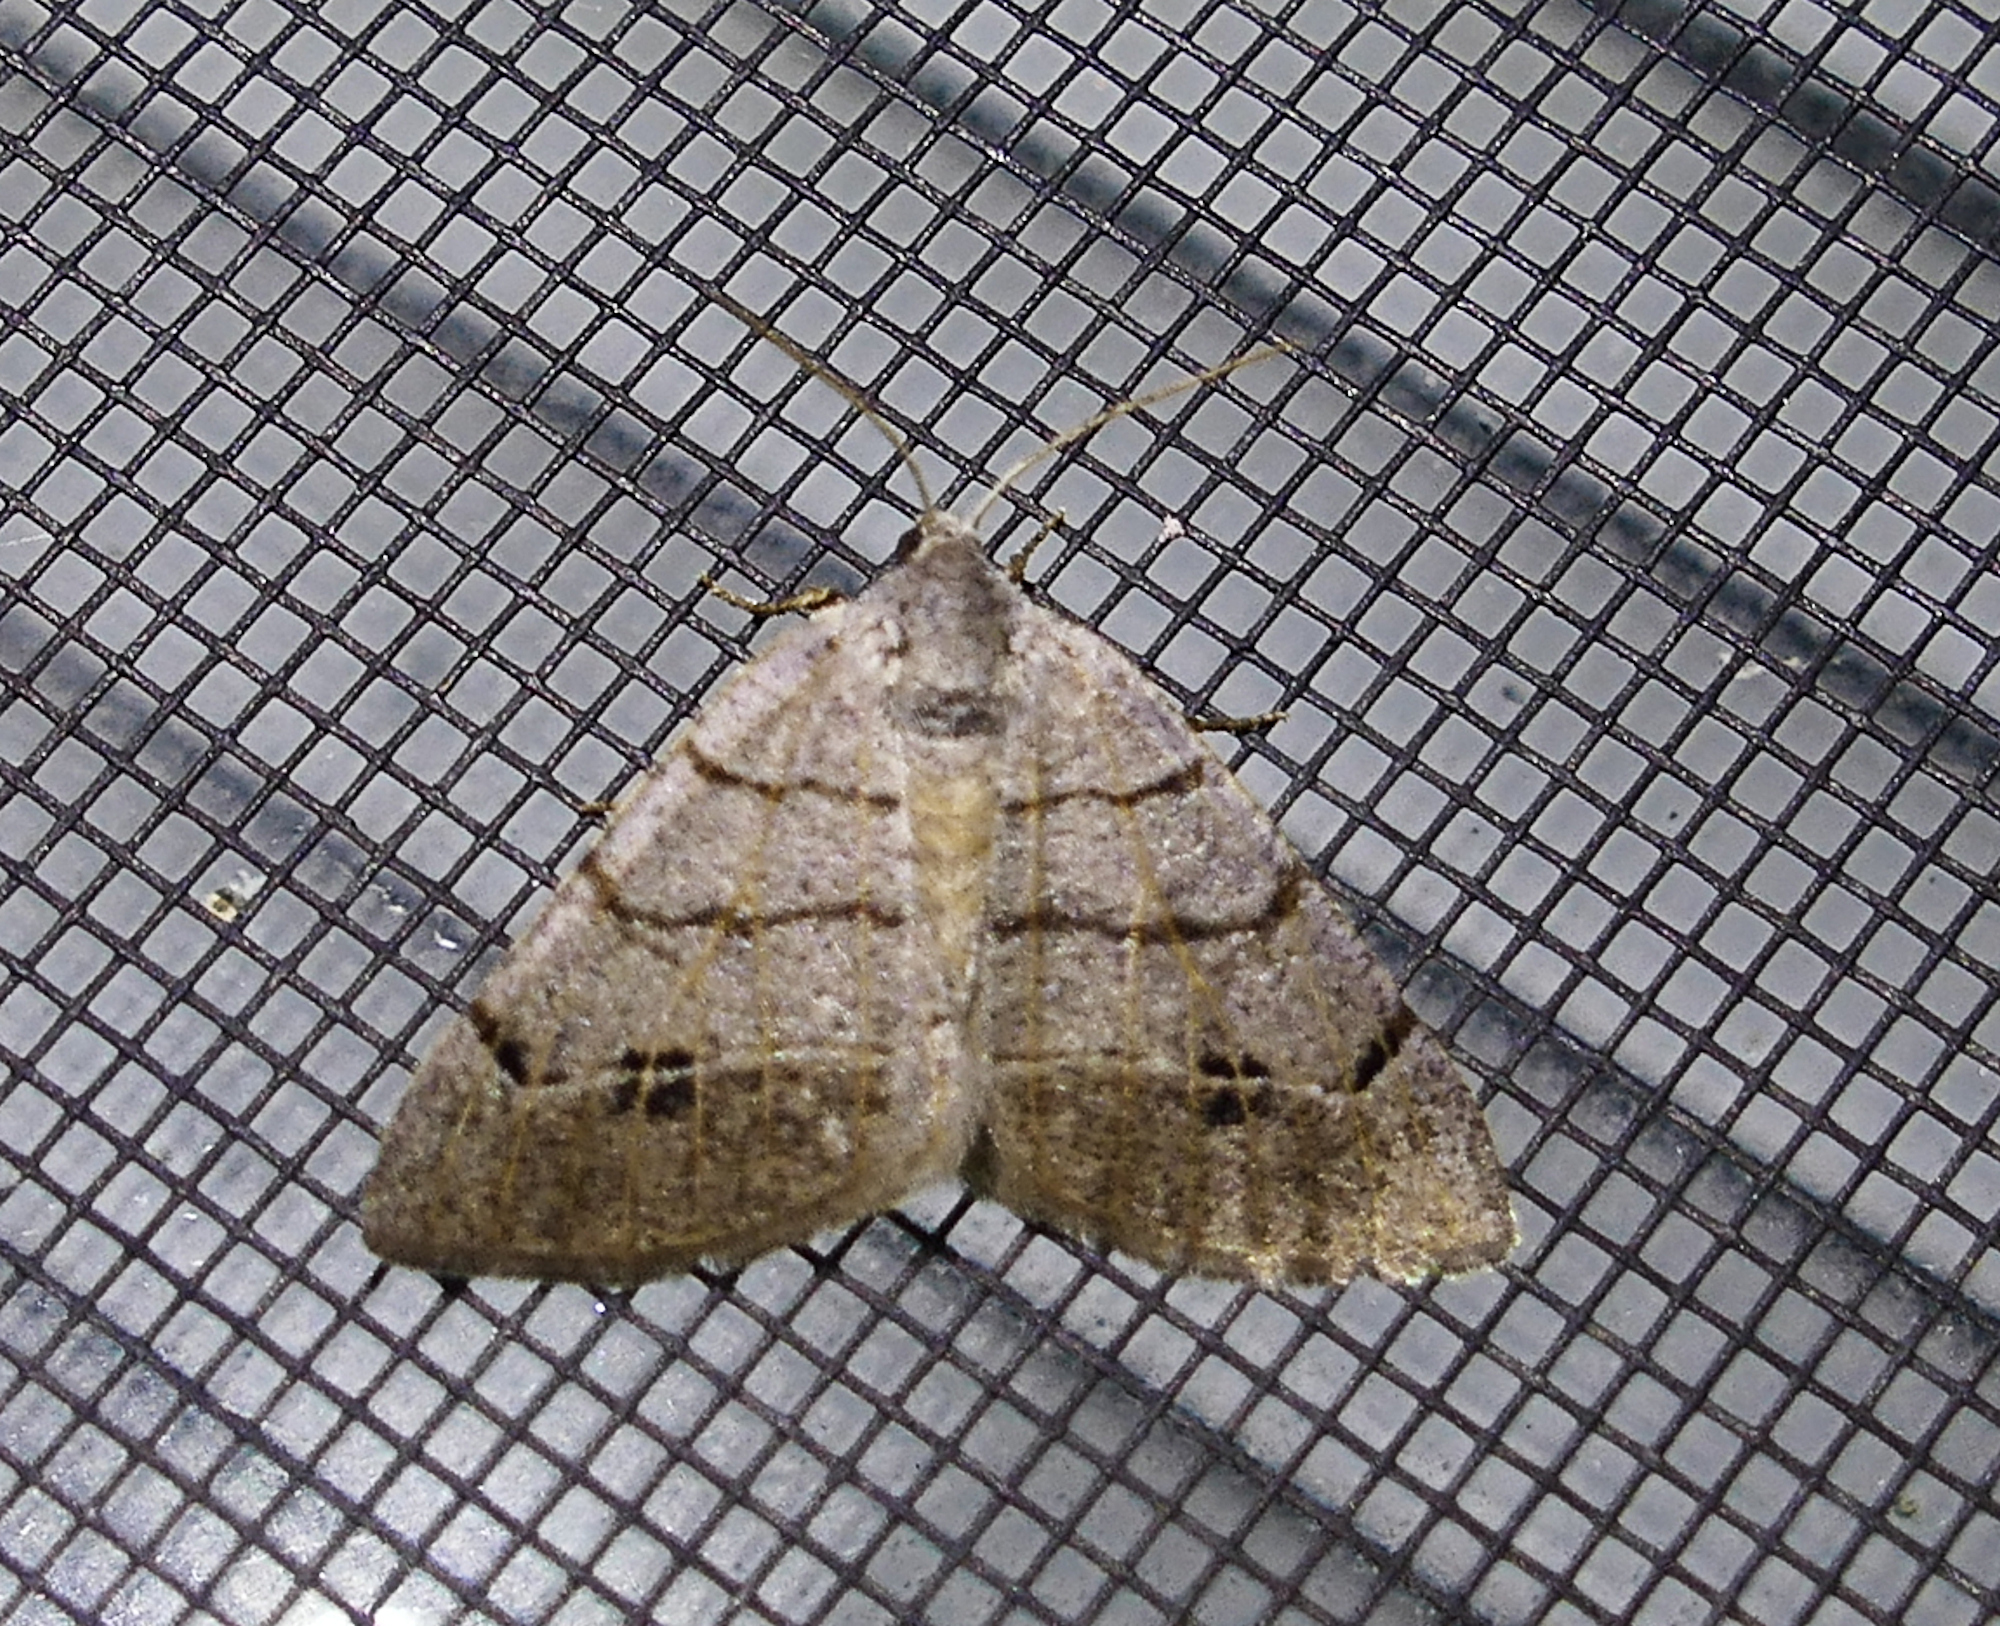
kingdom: Animalia
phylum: Arthropoda
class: Insecta
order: Lepidoptera
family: Geometridae
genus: Isturgia
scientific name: Isturgia dislocaria
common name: Pale-viened enconista
